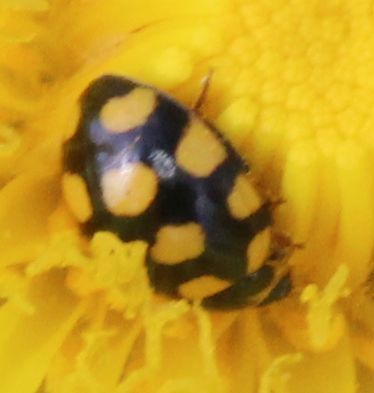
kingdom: Animalia
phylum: Arthropoda
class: Insecta
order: Coleoptera
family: Coccinellidae
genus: Coccinula
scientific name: Coccinula quatuordecimpustulata
